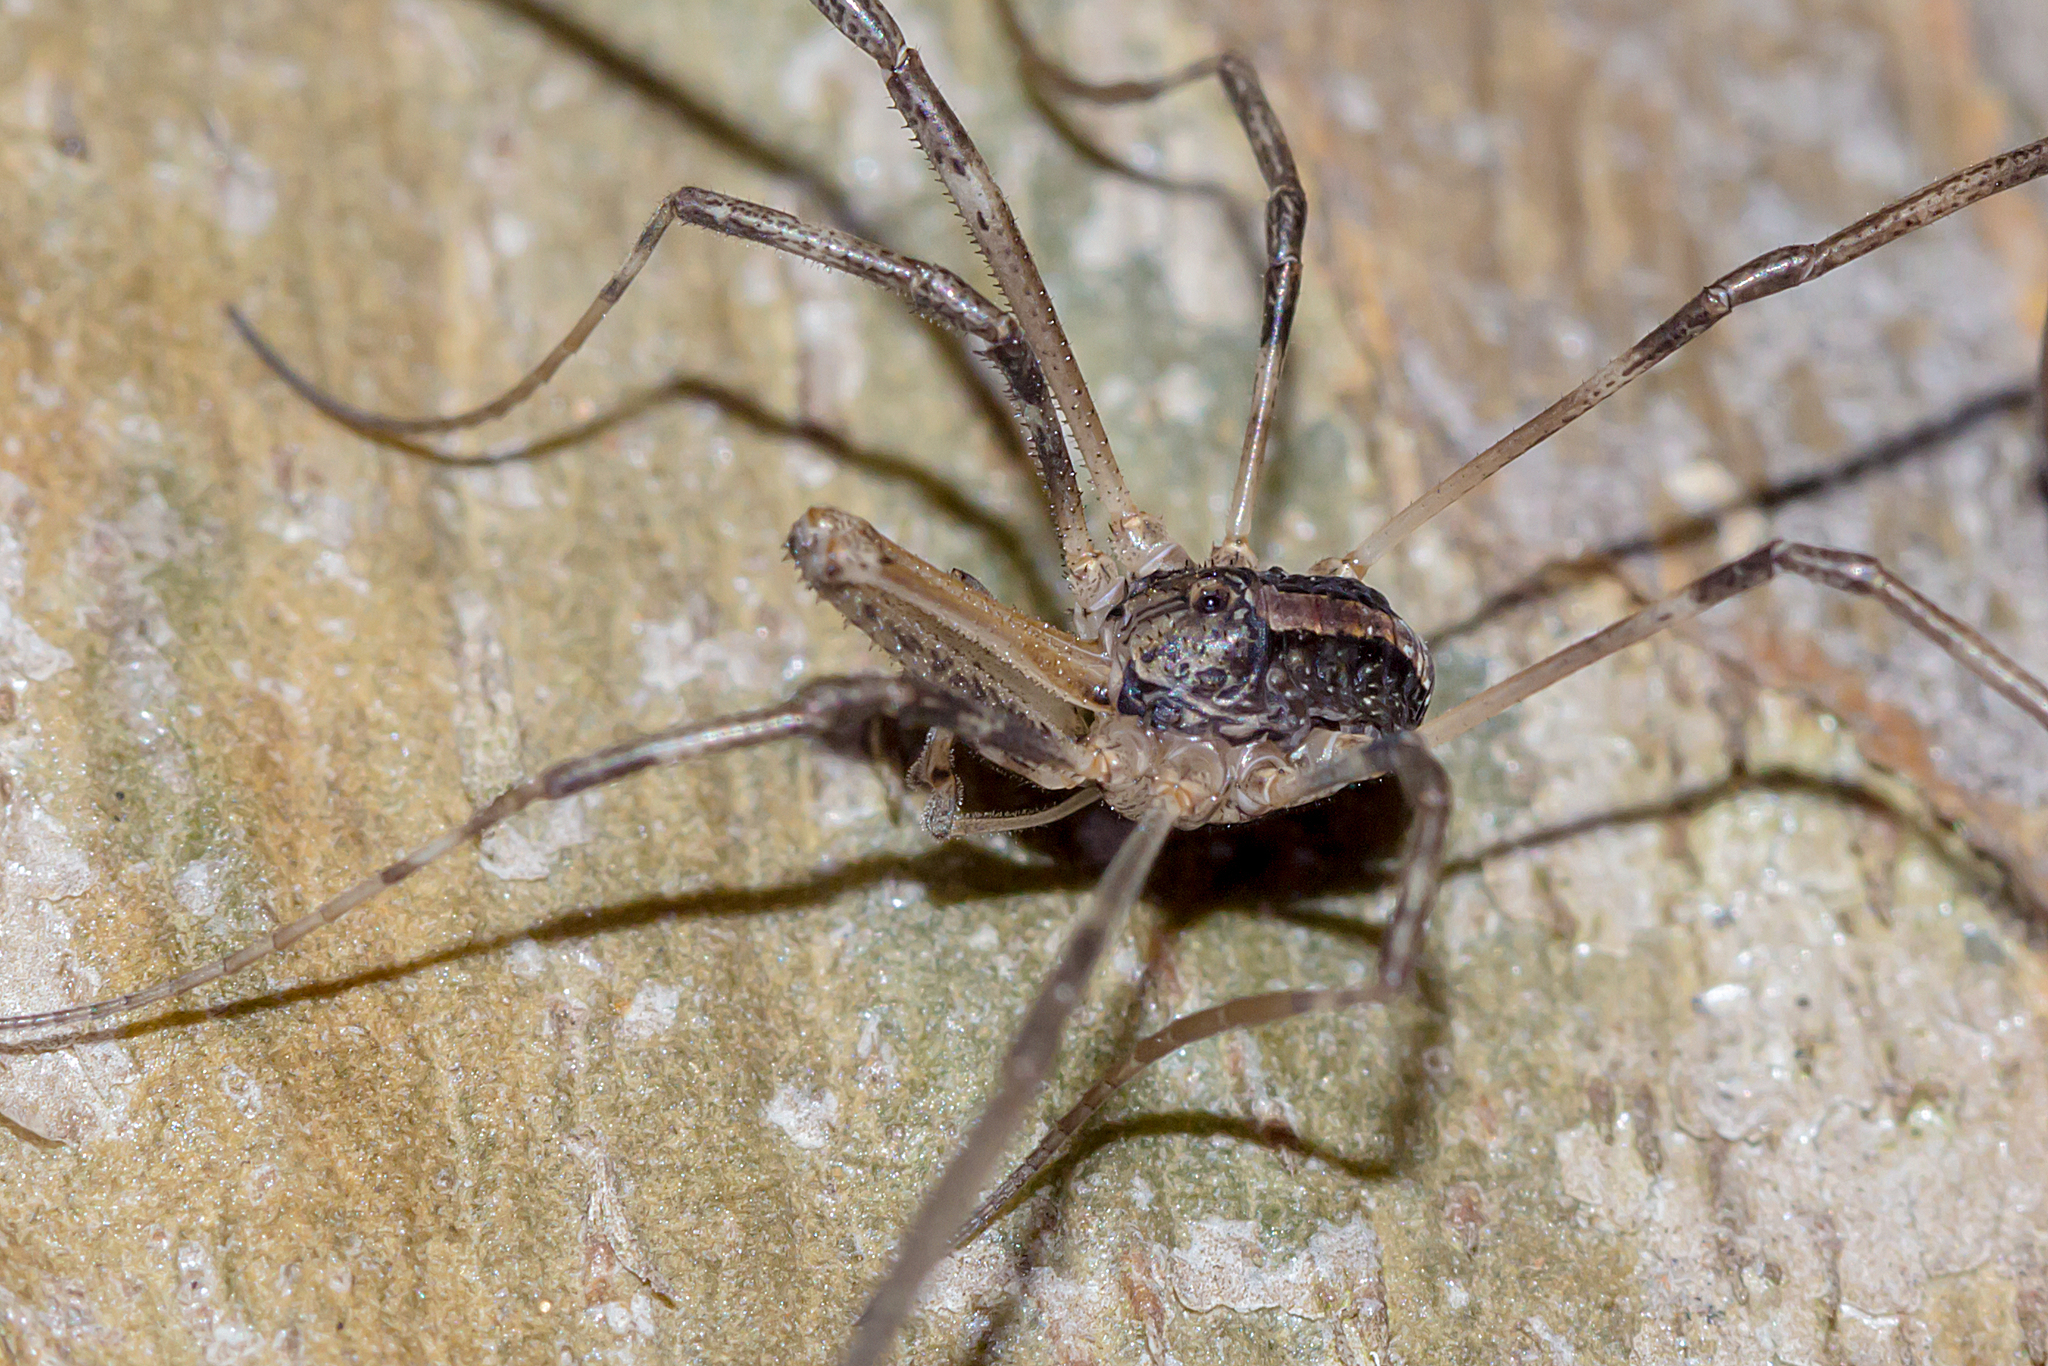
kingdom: Animalia
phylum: Arthropoda
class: Arachnida
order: Opiliones
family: Neopilionidae
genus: Megalopsalis
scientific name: Megalopsalis eremiotis
